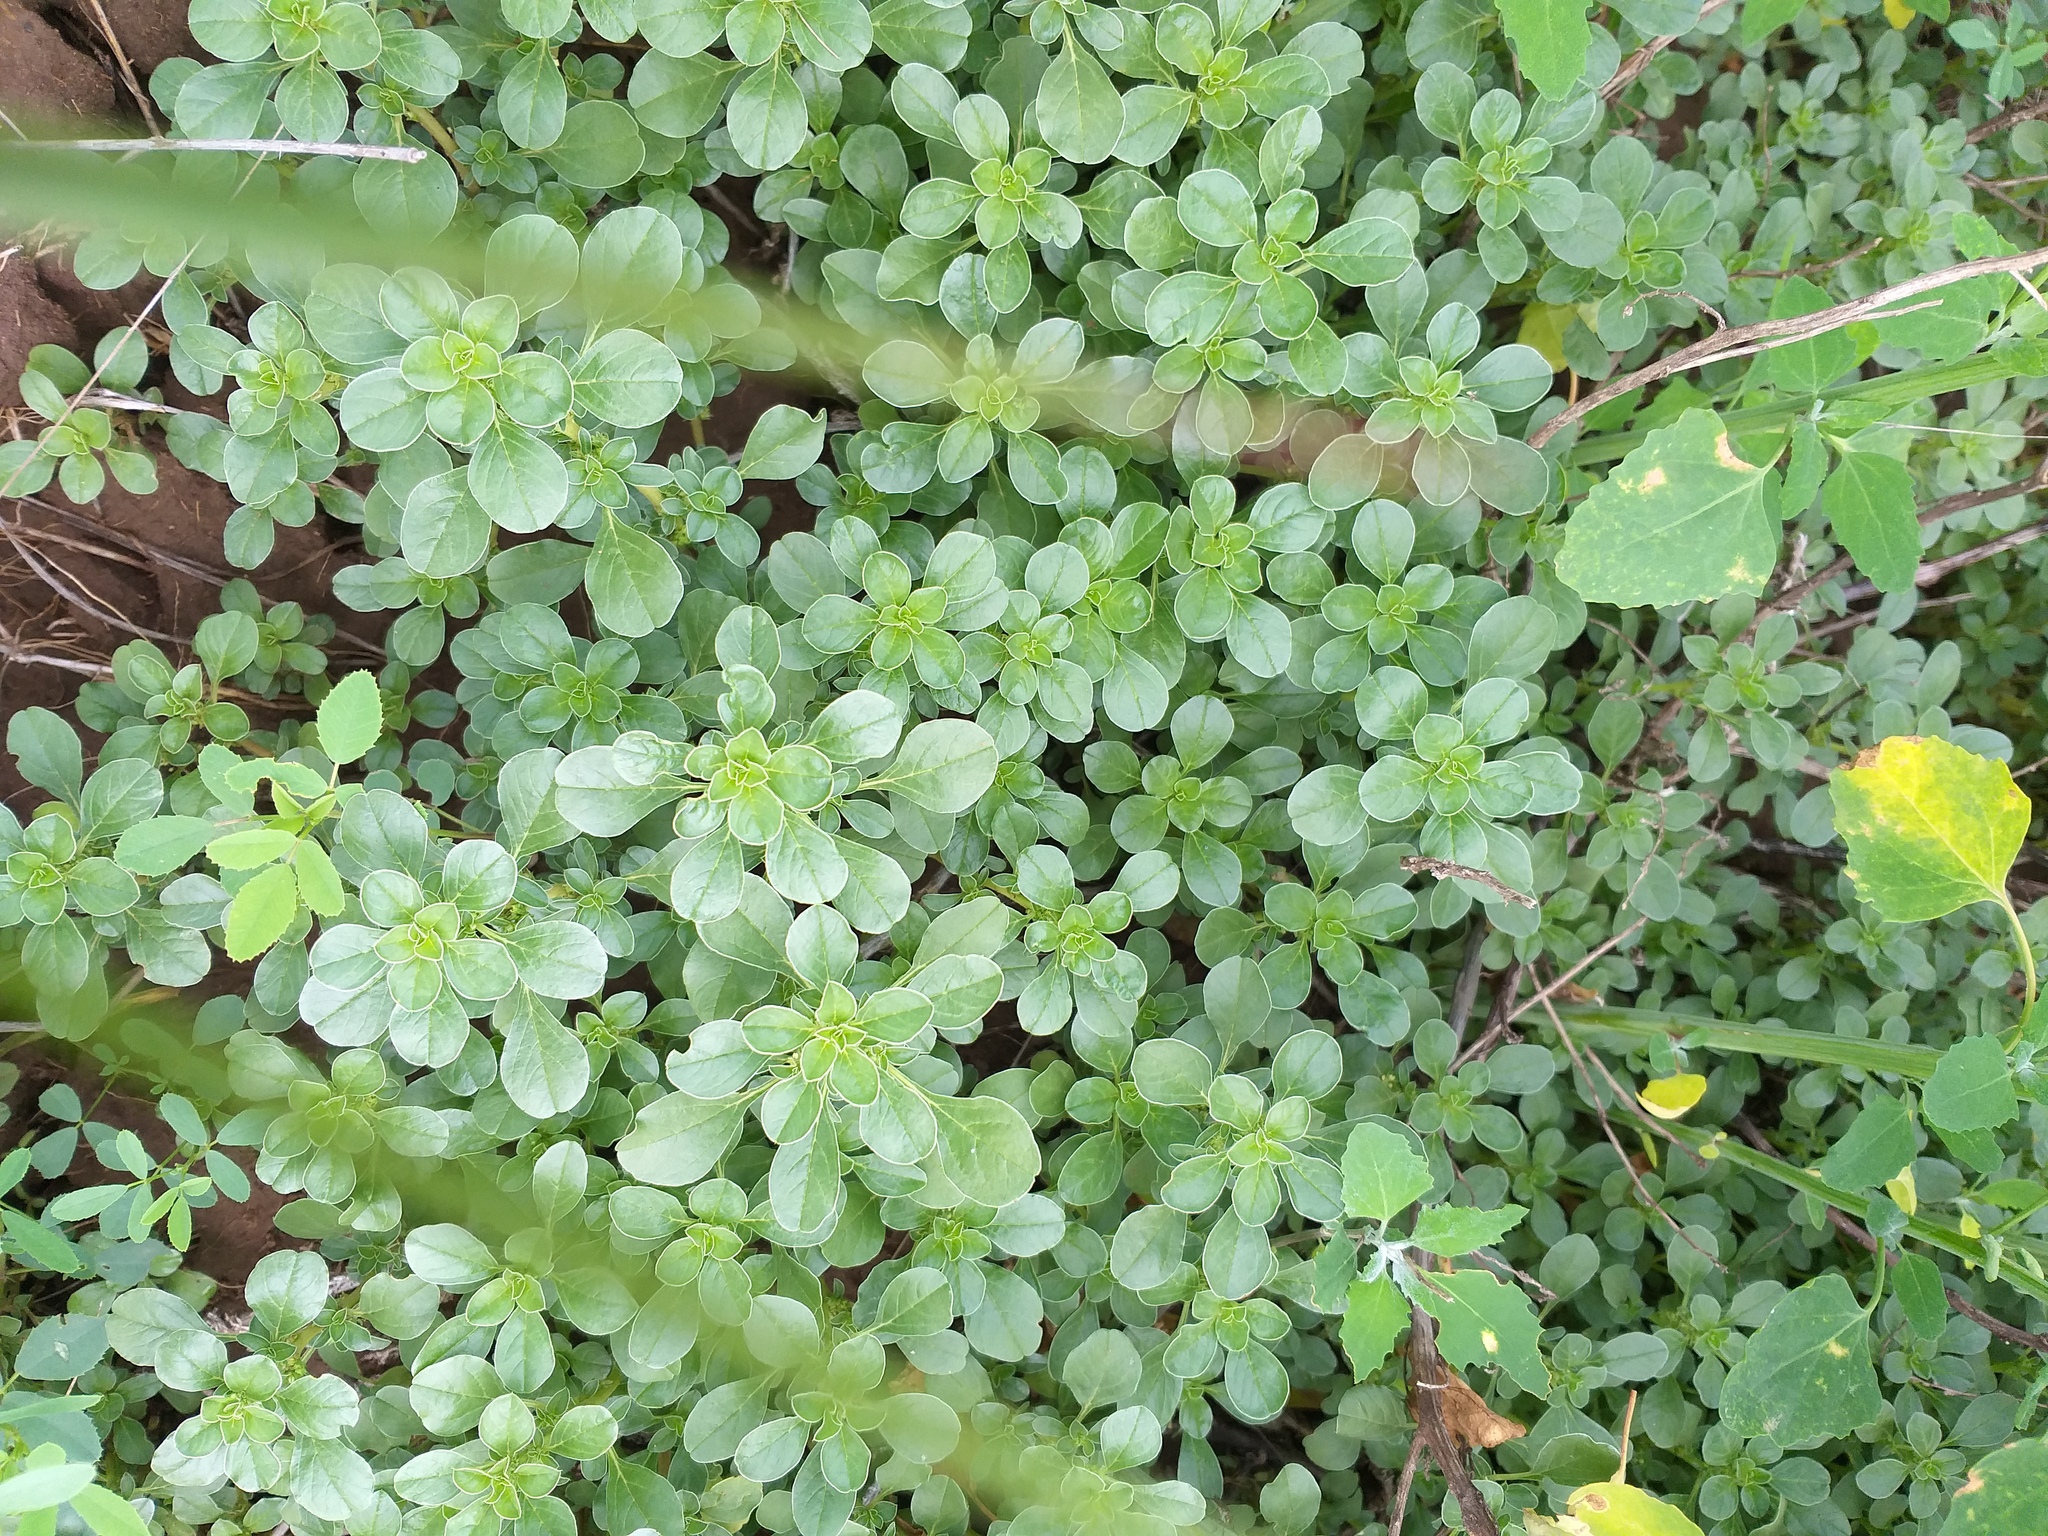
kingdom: Plantae
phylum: Tracheophyta
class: Magnoliopsida
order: Caryophyllales
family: Amaranthaceae
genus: Amaranthus
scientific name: Amaranthus blitoides
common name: Prostrate pigweed
